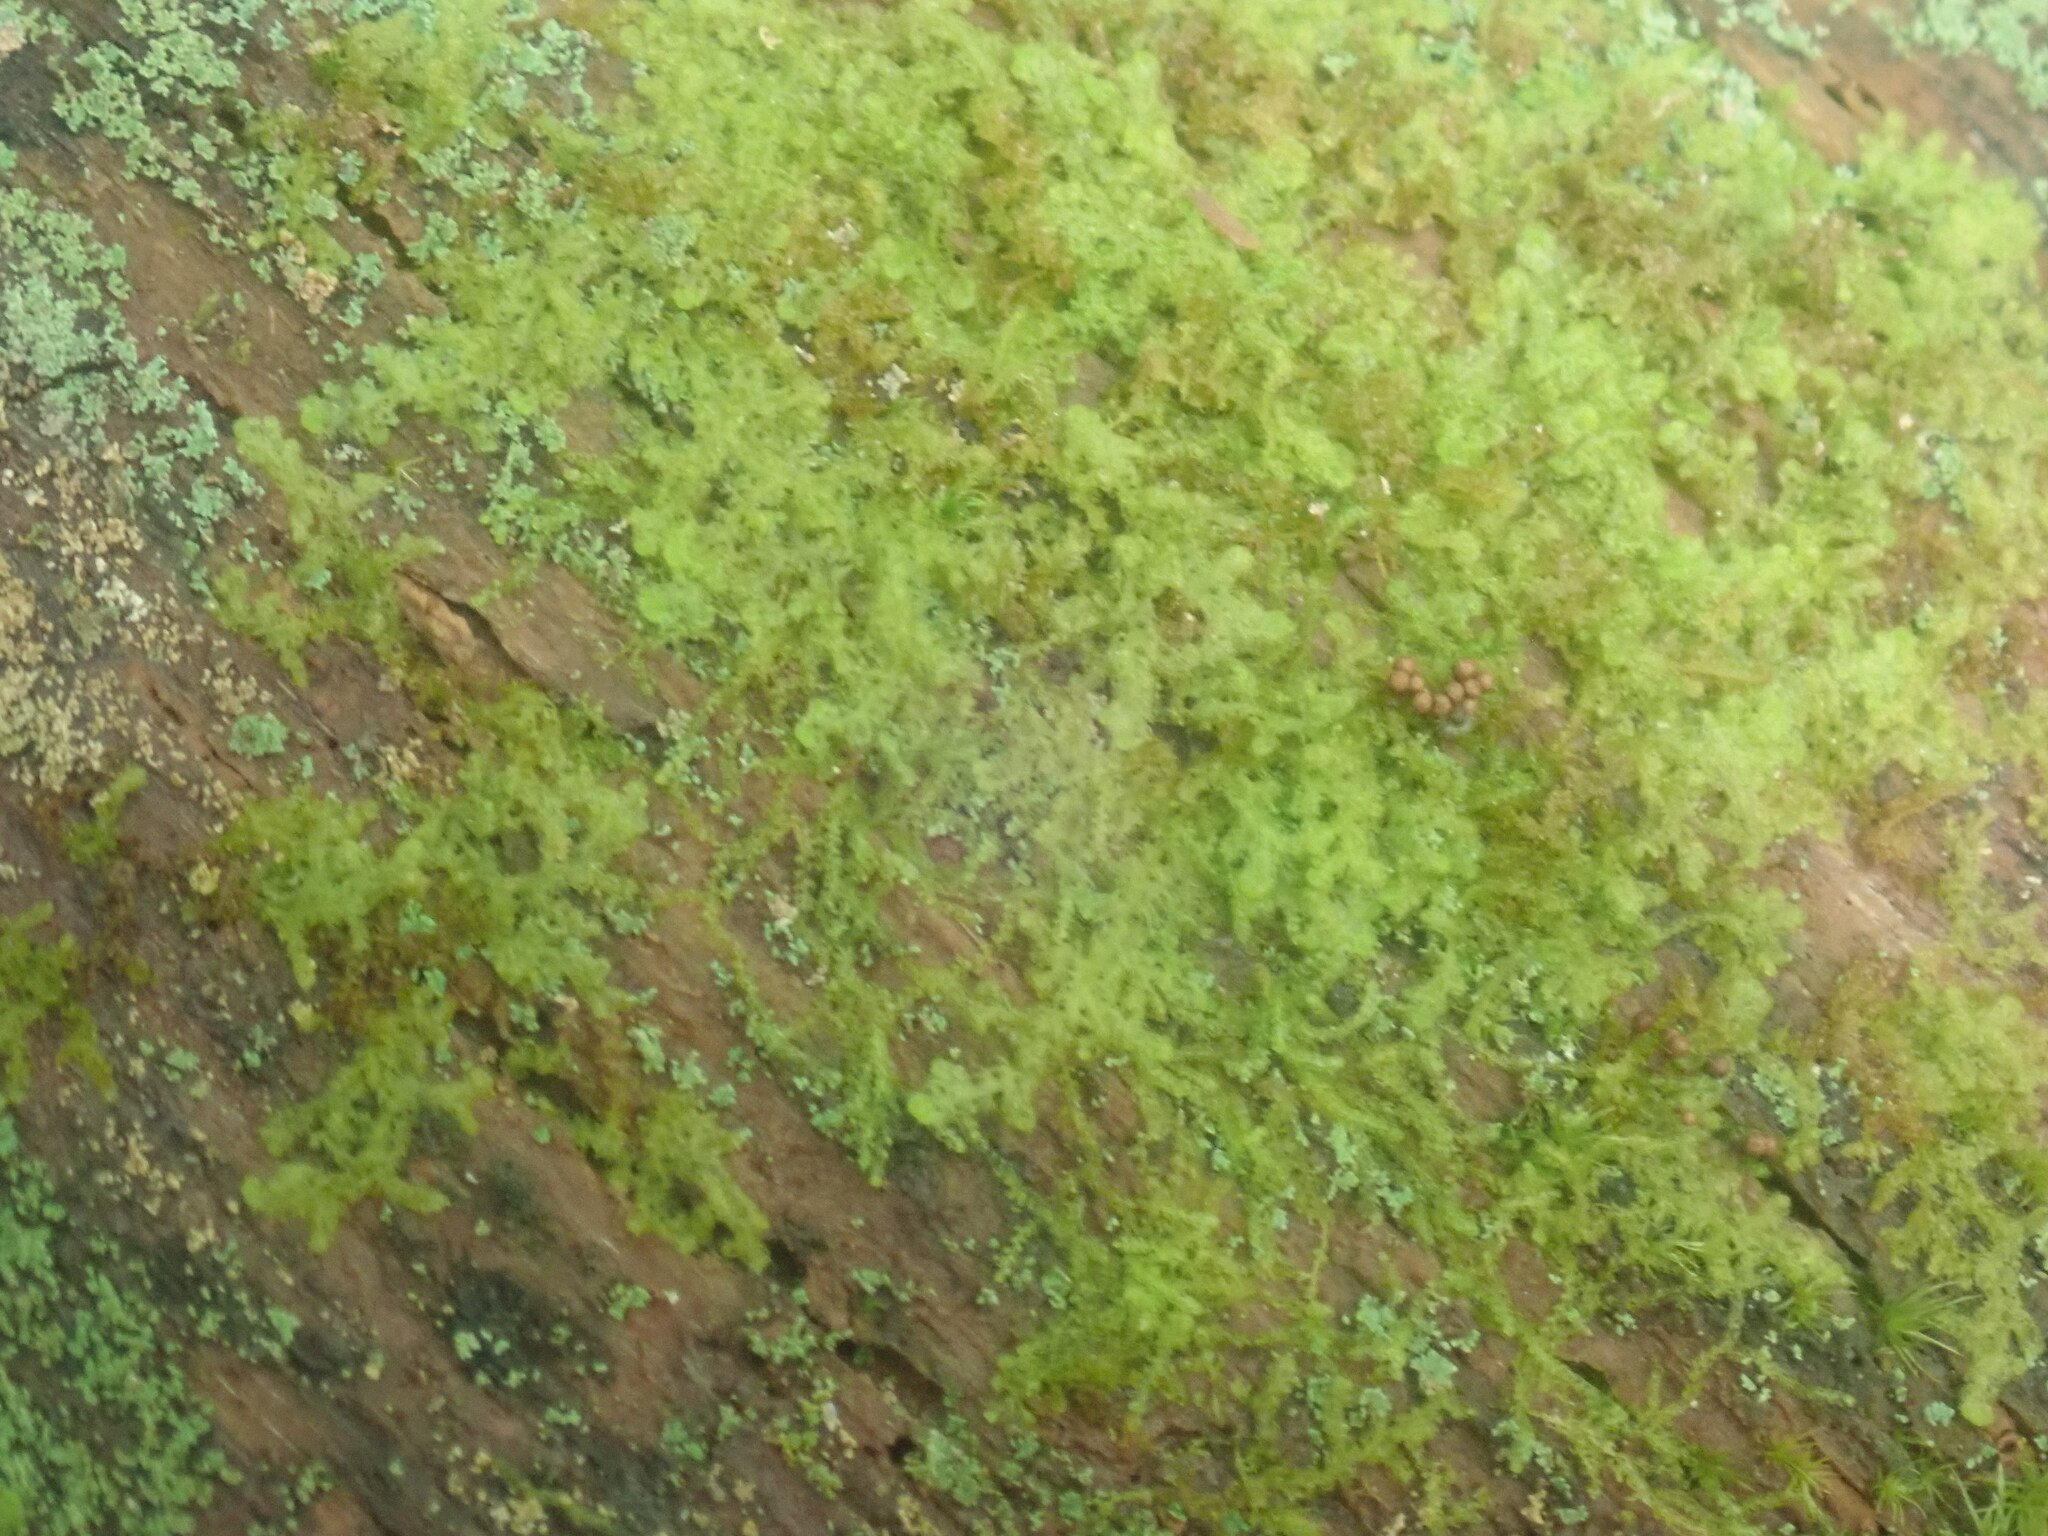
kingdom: Plantae
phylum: Marchantiophyta
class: Jungermanniopsida
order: Ptilidiales
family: Ptilidiaceae
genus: Ptilidium
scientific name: Ptilidium pulcherrimum
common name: Tree fringewort
